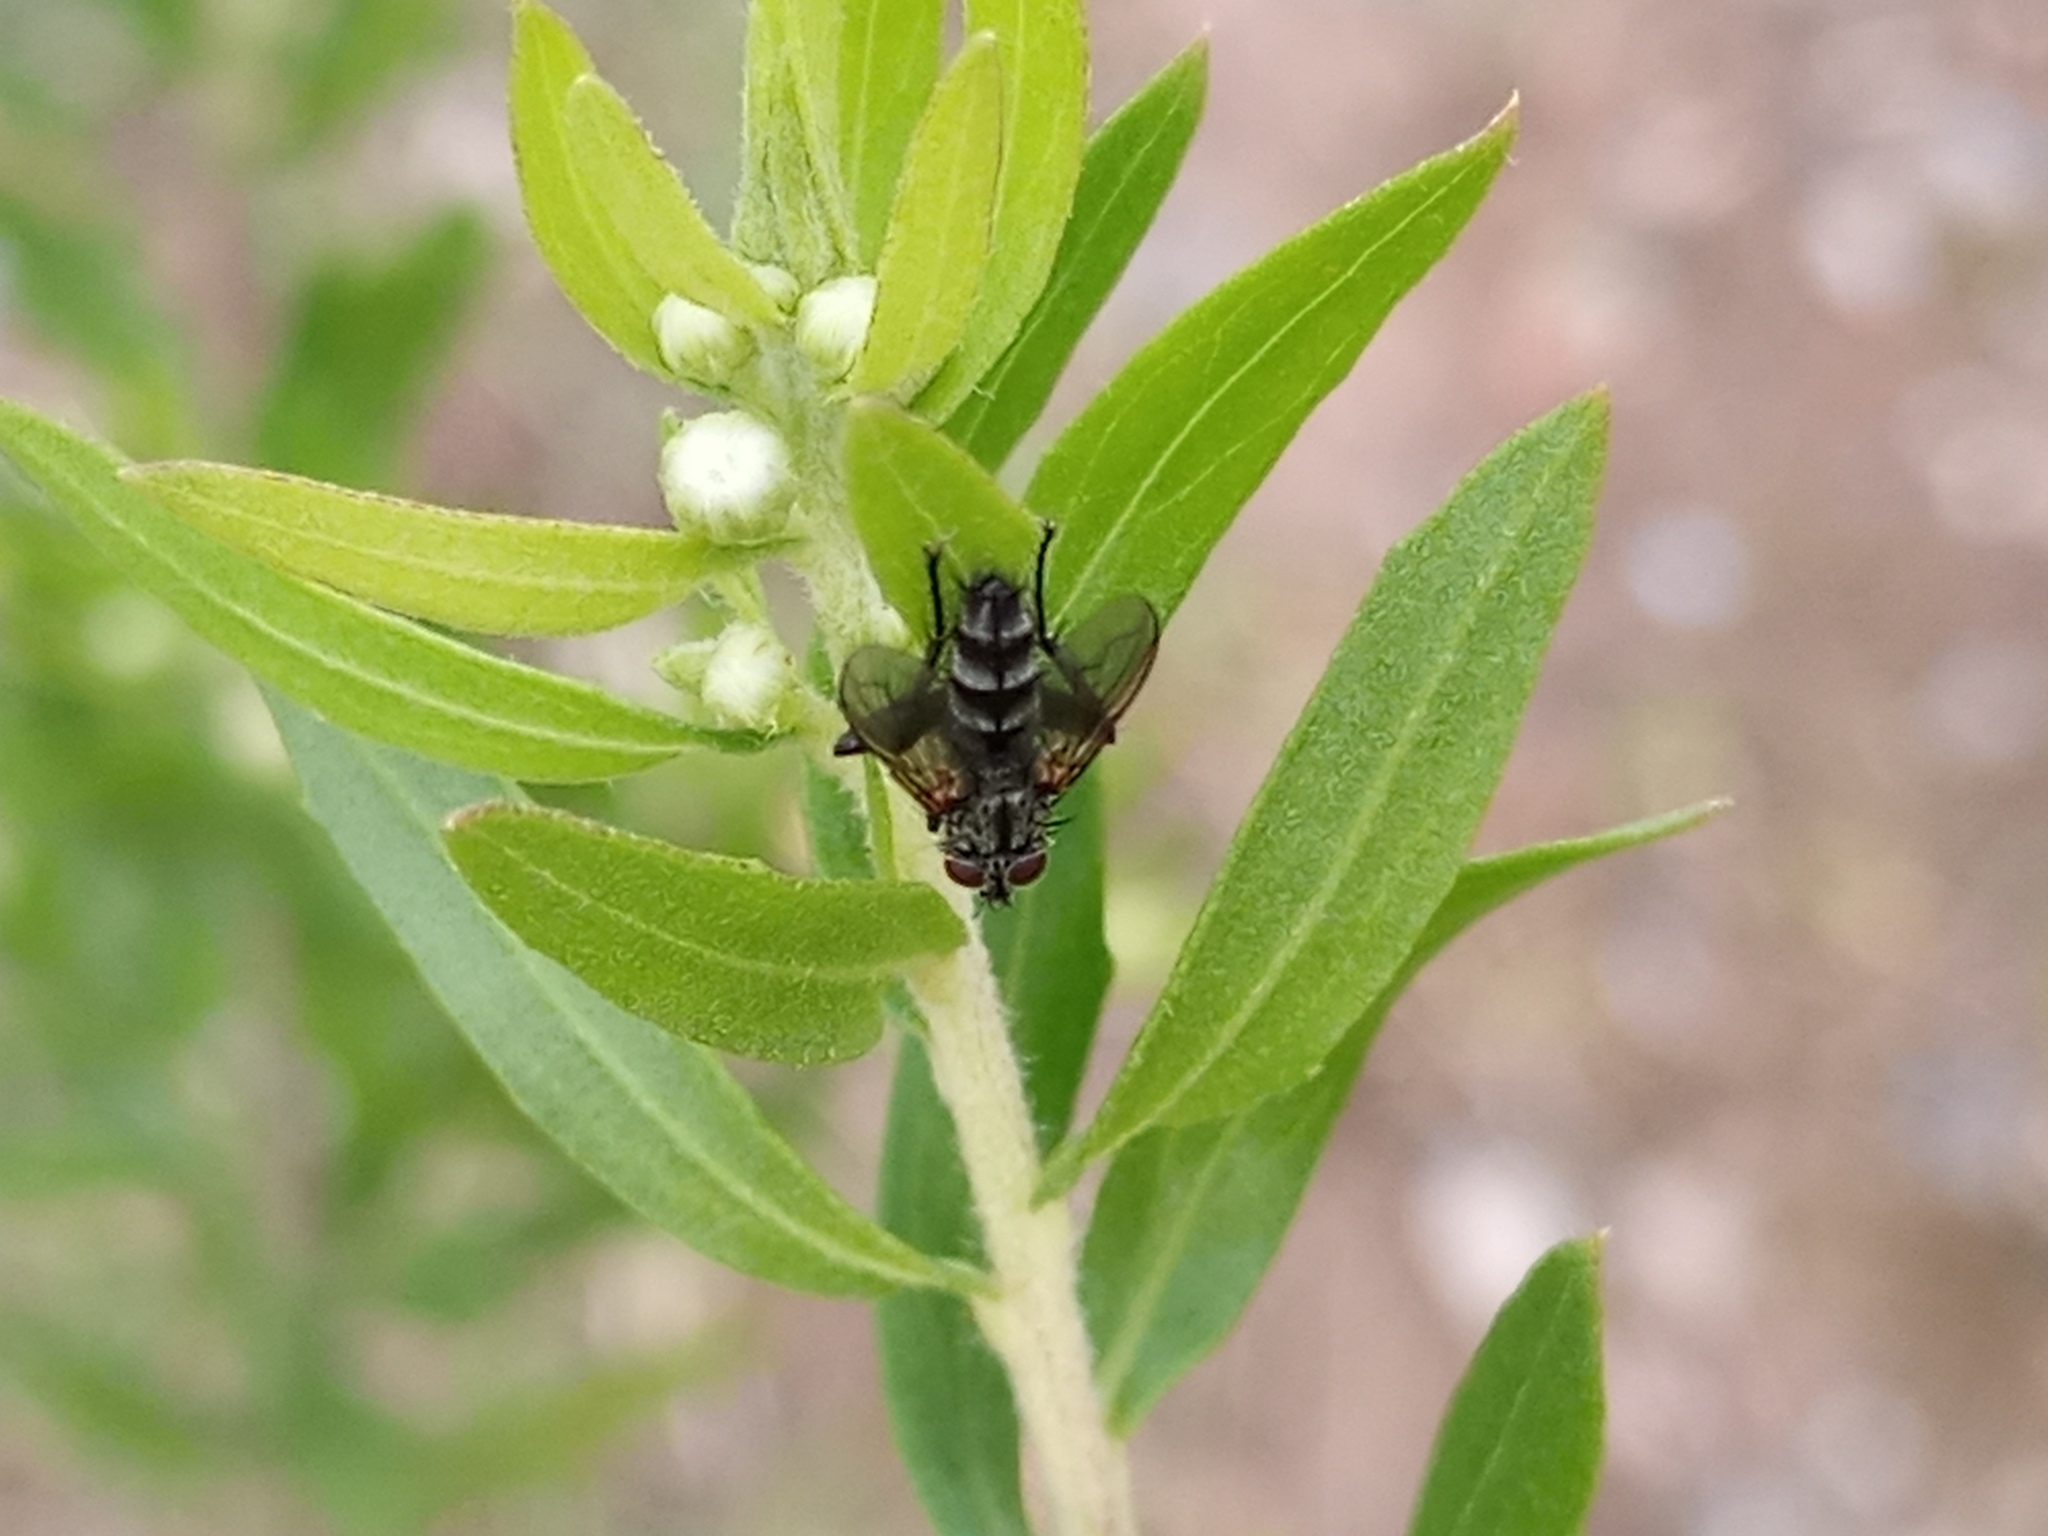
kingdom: Animalia
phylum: Arthropoda
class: Insecta
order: Diptera
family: Calliphoridae
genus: Stevenia
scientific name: Stevenia deceptoria
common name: Grizzled woodlouse-fly
